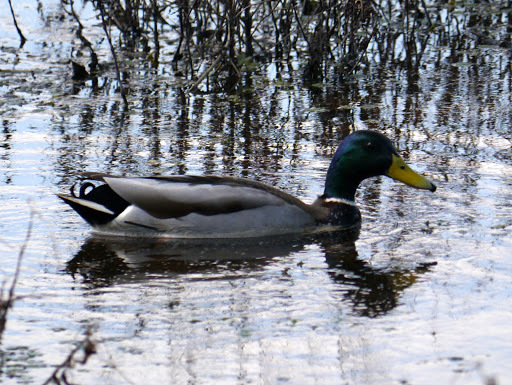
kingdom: Animalia
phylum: Chordata
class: Aves
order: Anseriformes
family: Anatidae
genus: Anas
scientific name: Anas platyrhynchos
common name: Mallard
